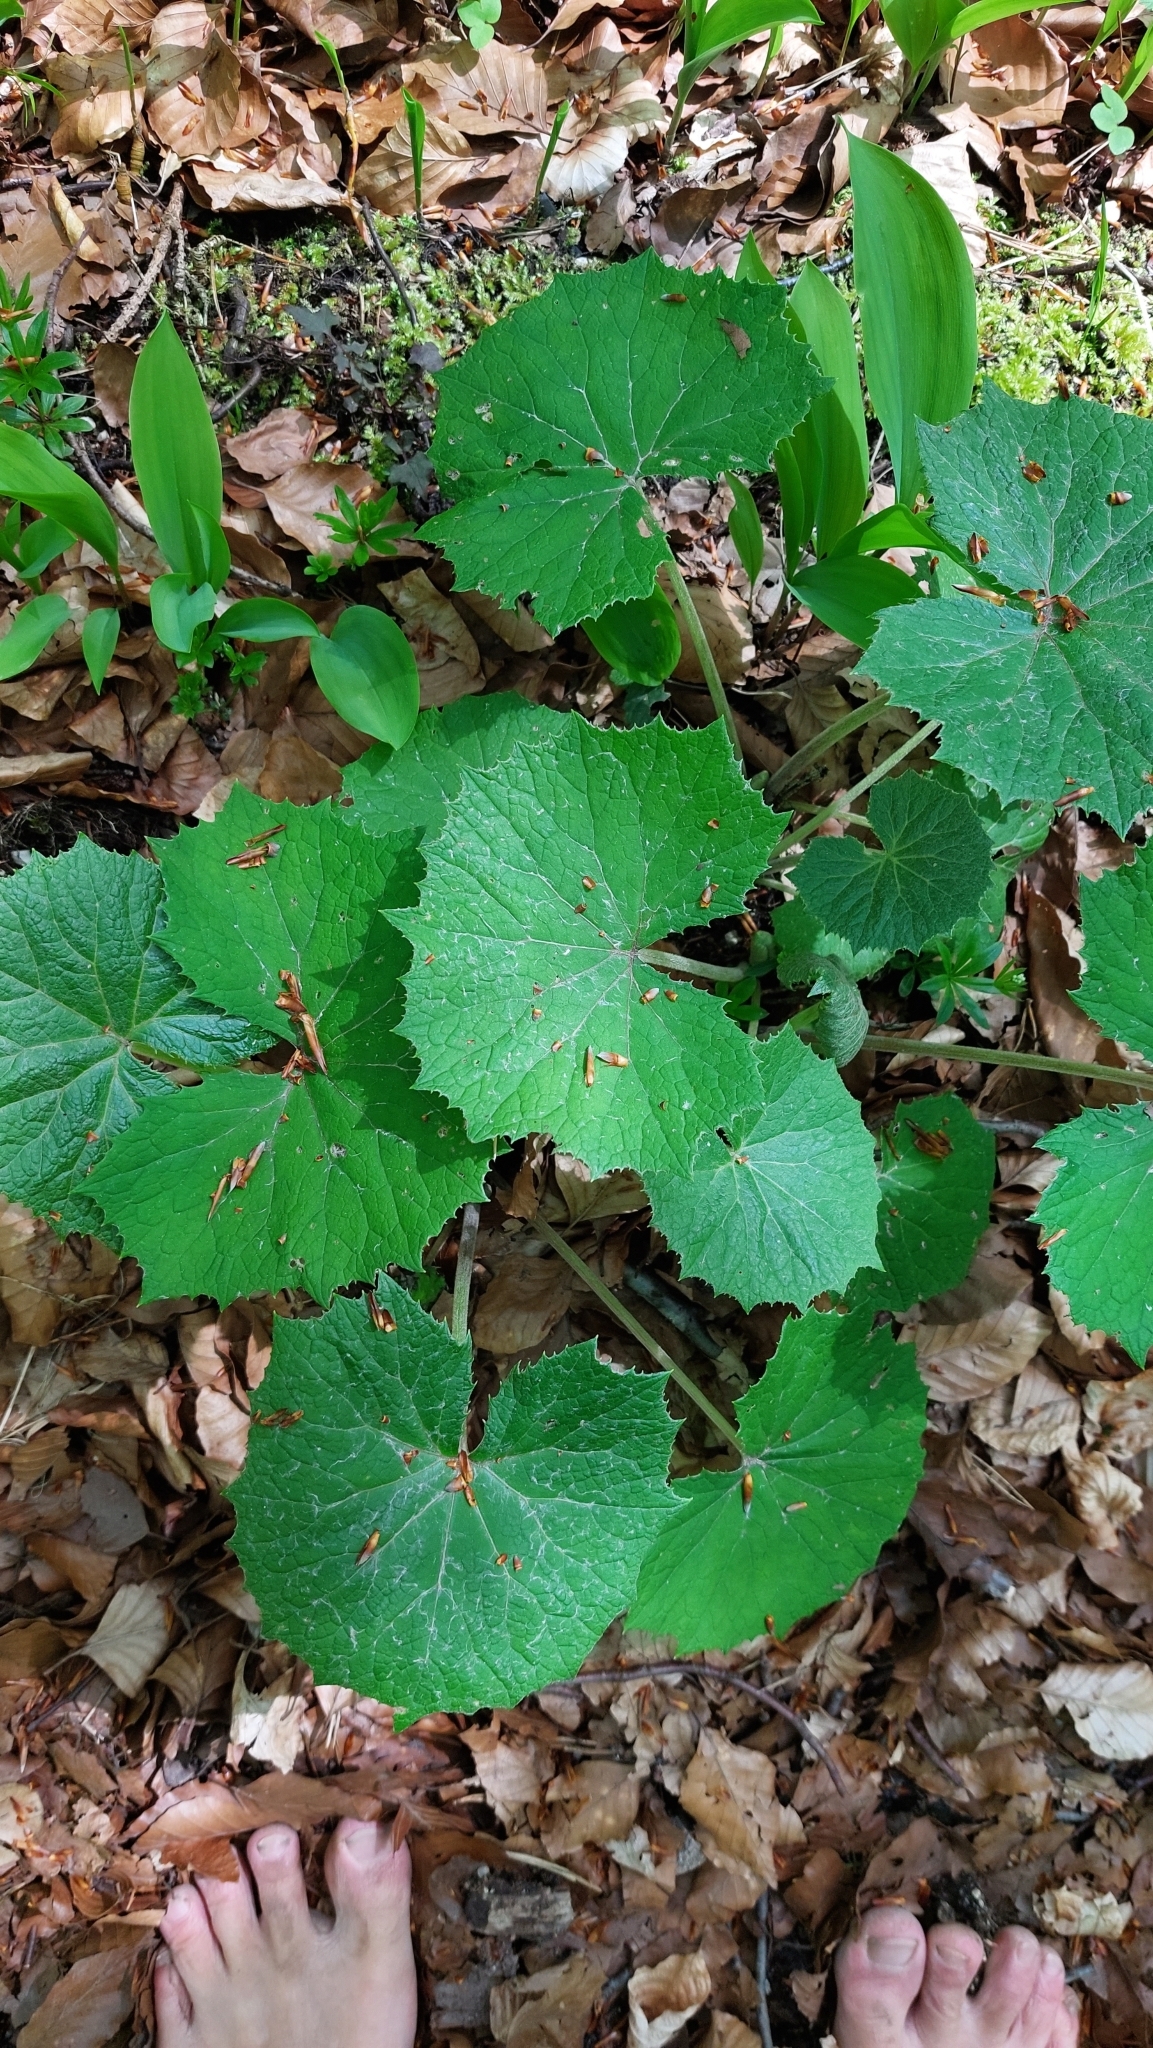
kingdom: Plantae
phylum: Tracheophyta
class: Magnoliopsida
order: Asterales
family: Asteraceae
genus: Petasites
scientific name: Petasites albus
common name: White butterbur
